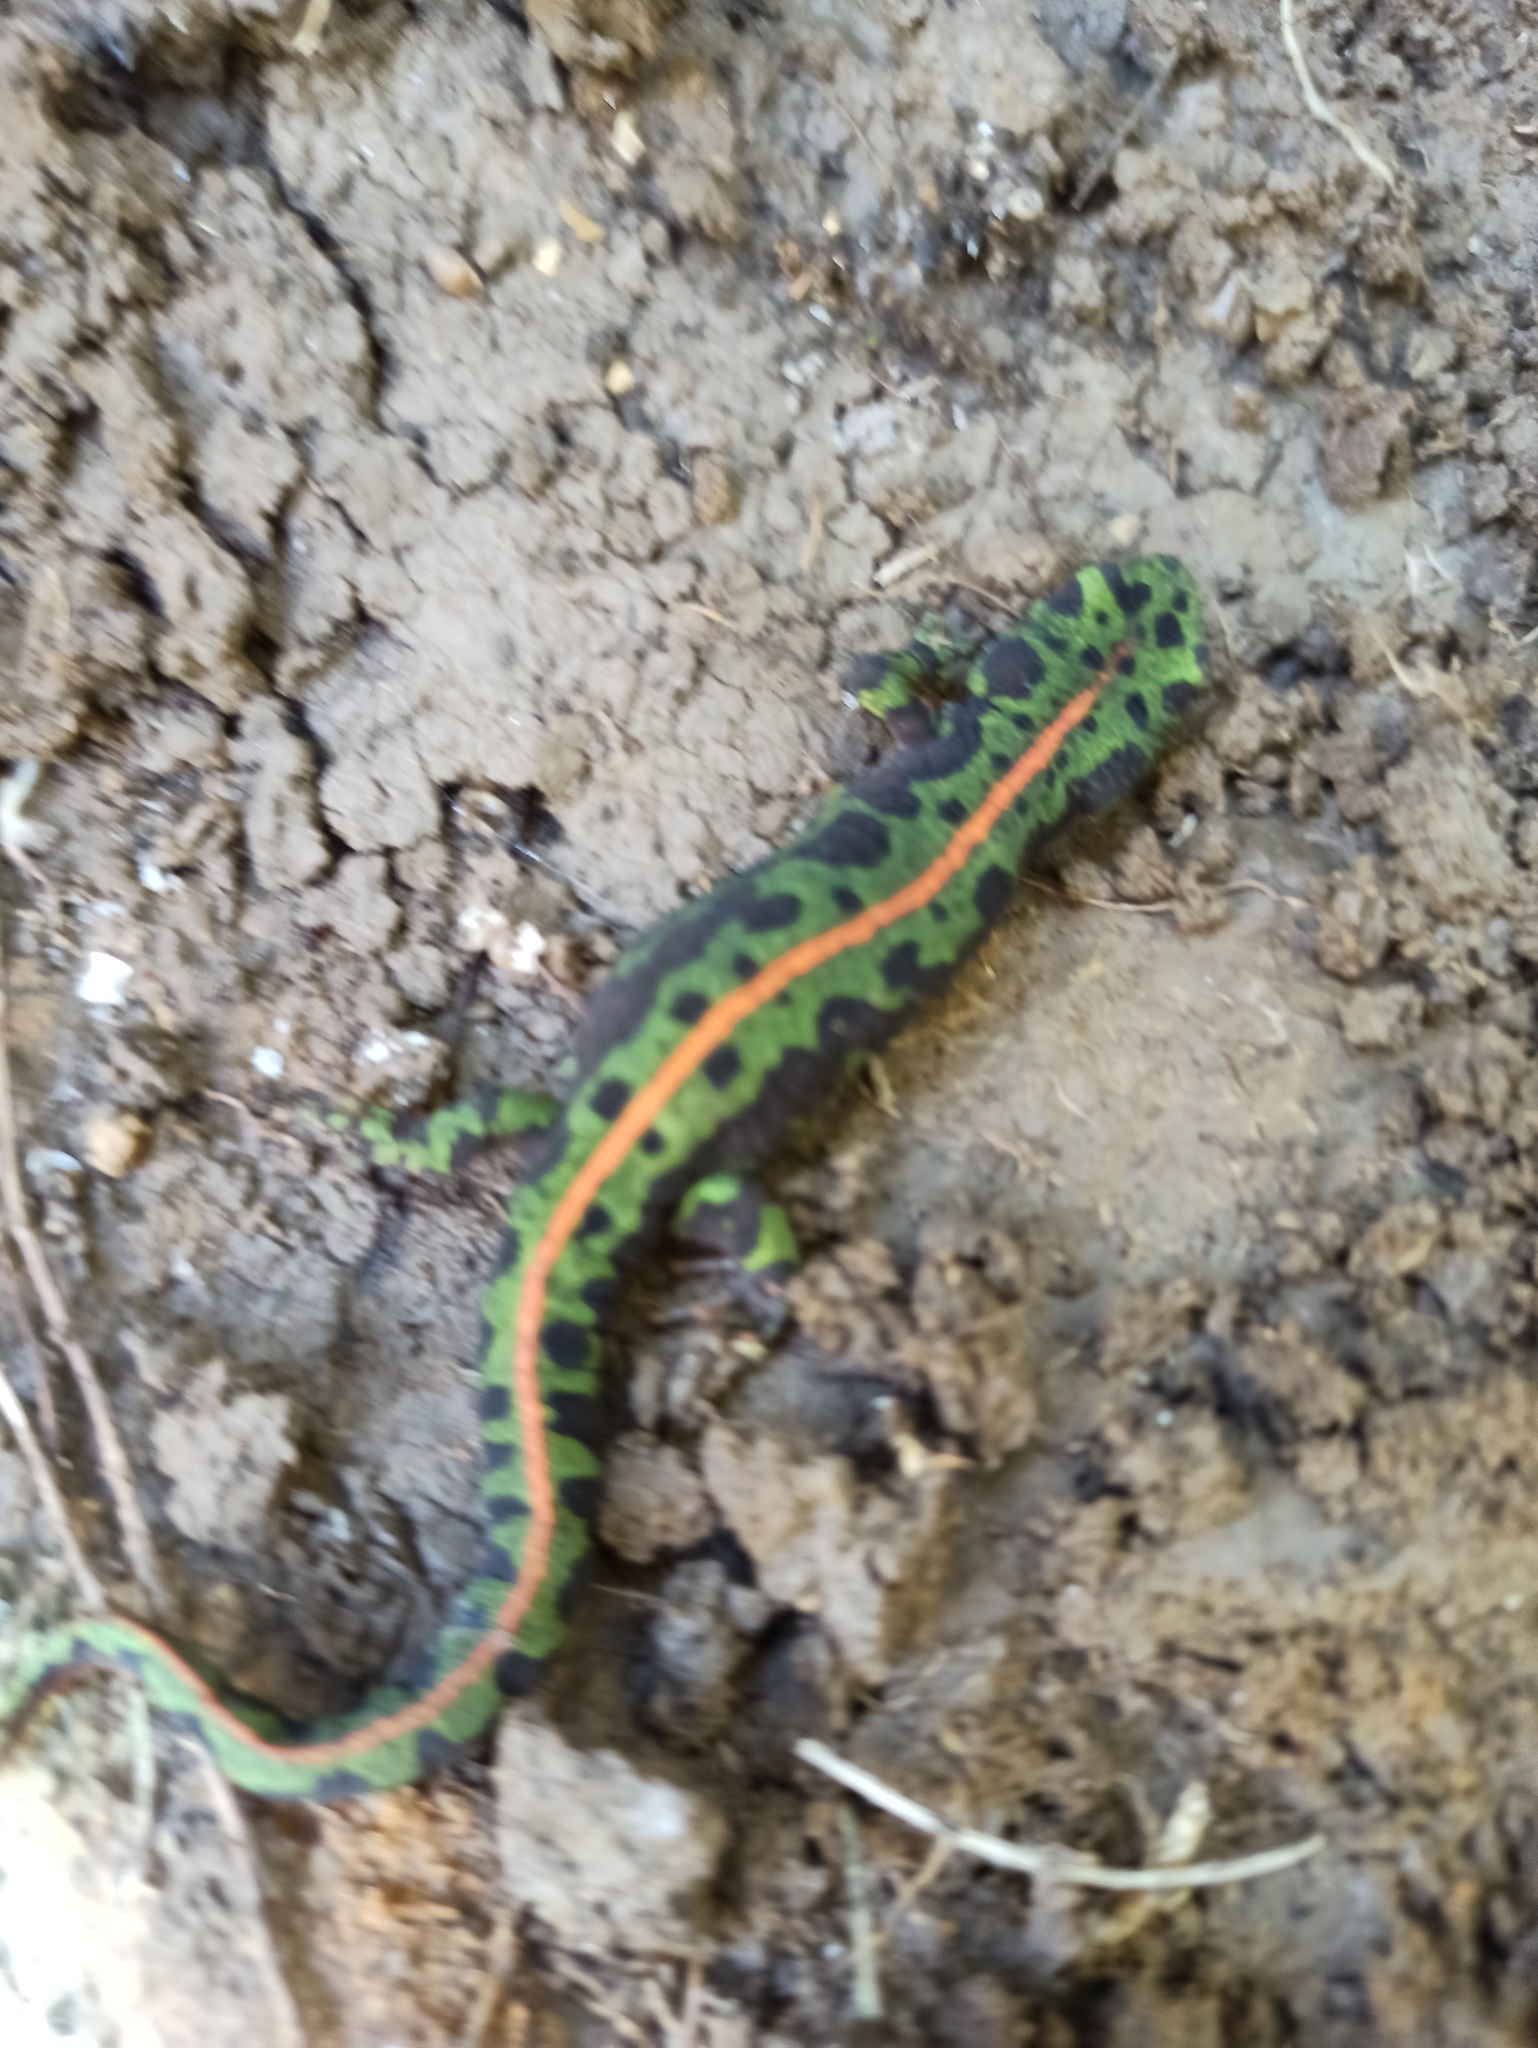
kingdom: Animalia
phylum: Chordata
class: Amphibia
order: Caudata
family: Salamandridae
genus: Triturus
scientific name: Triturus pygmaeus
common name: Southern marbled newt
